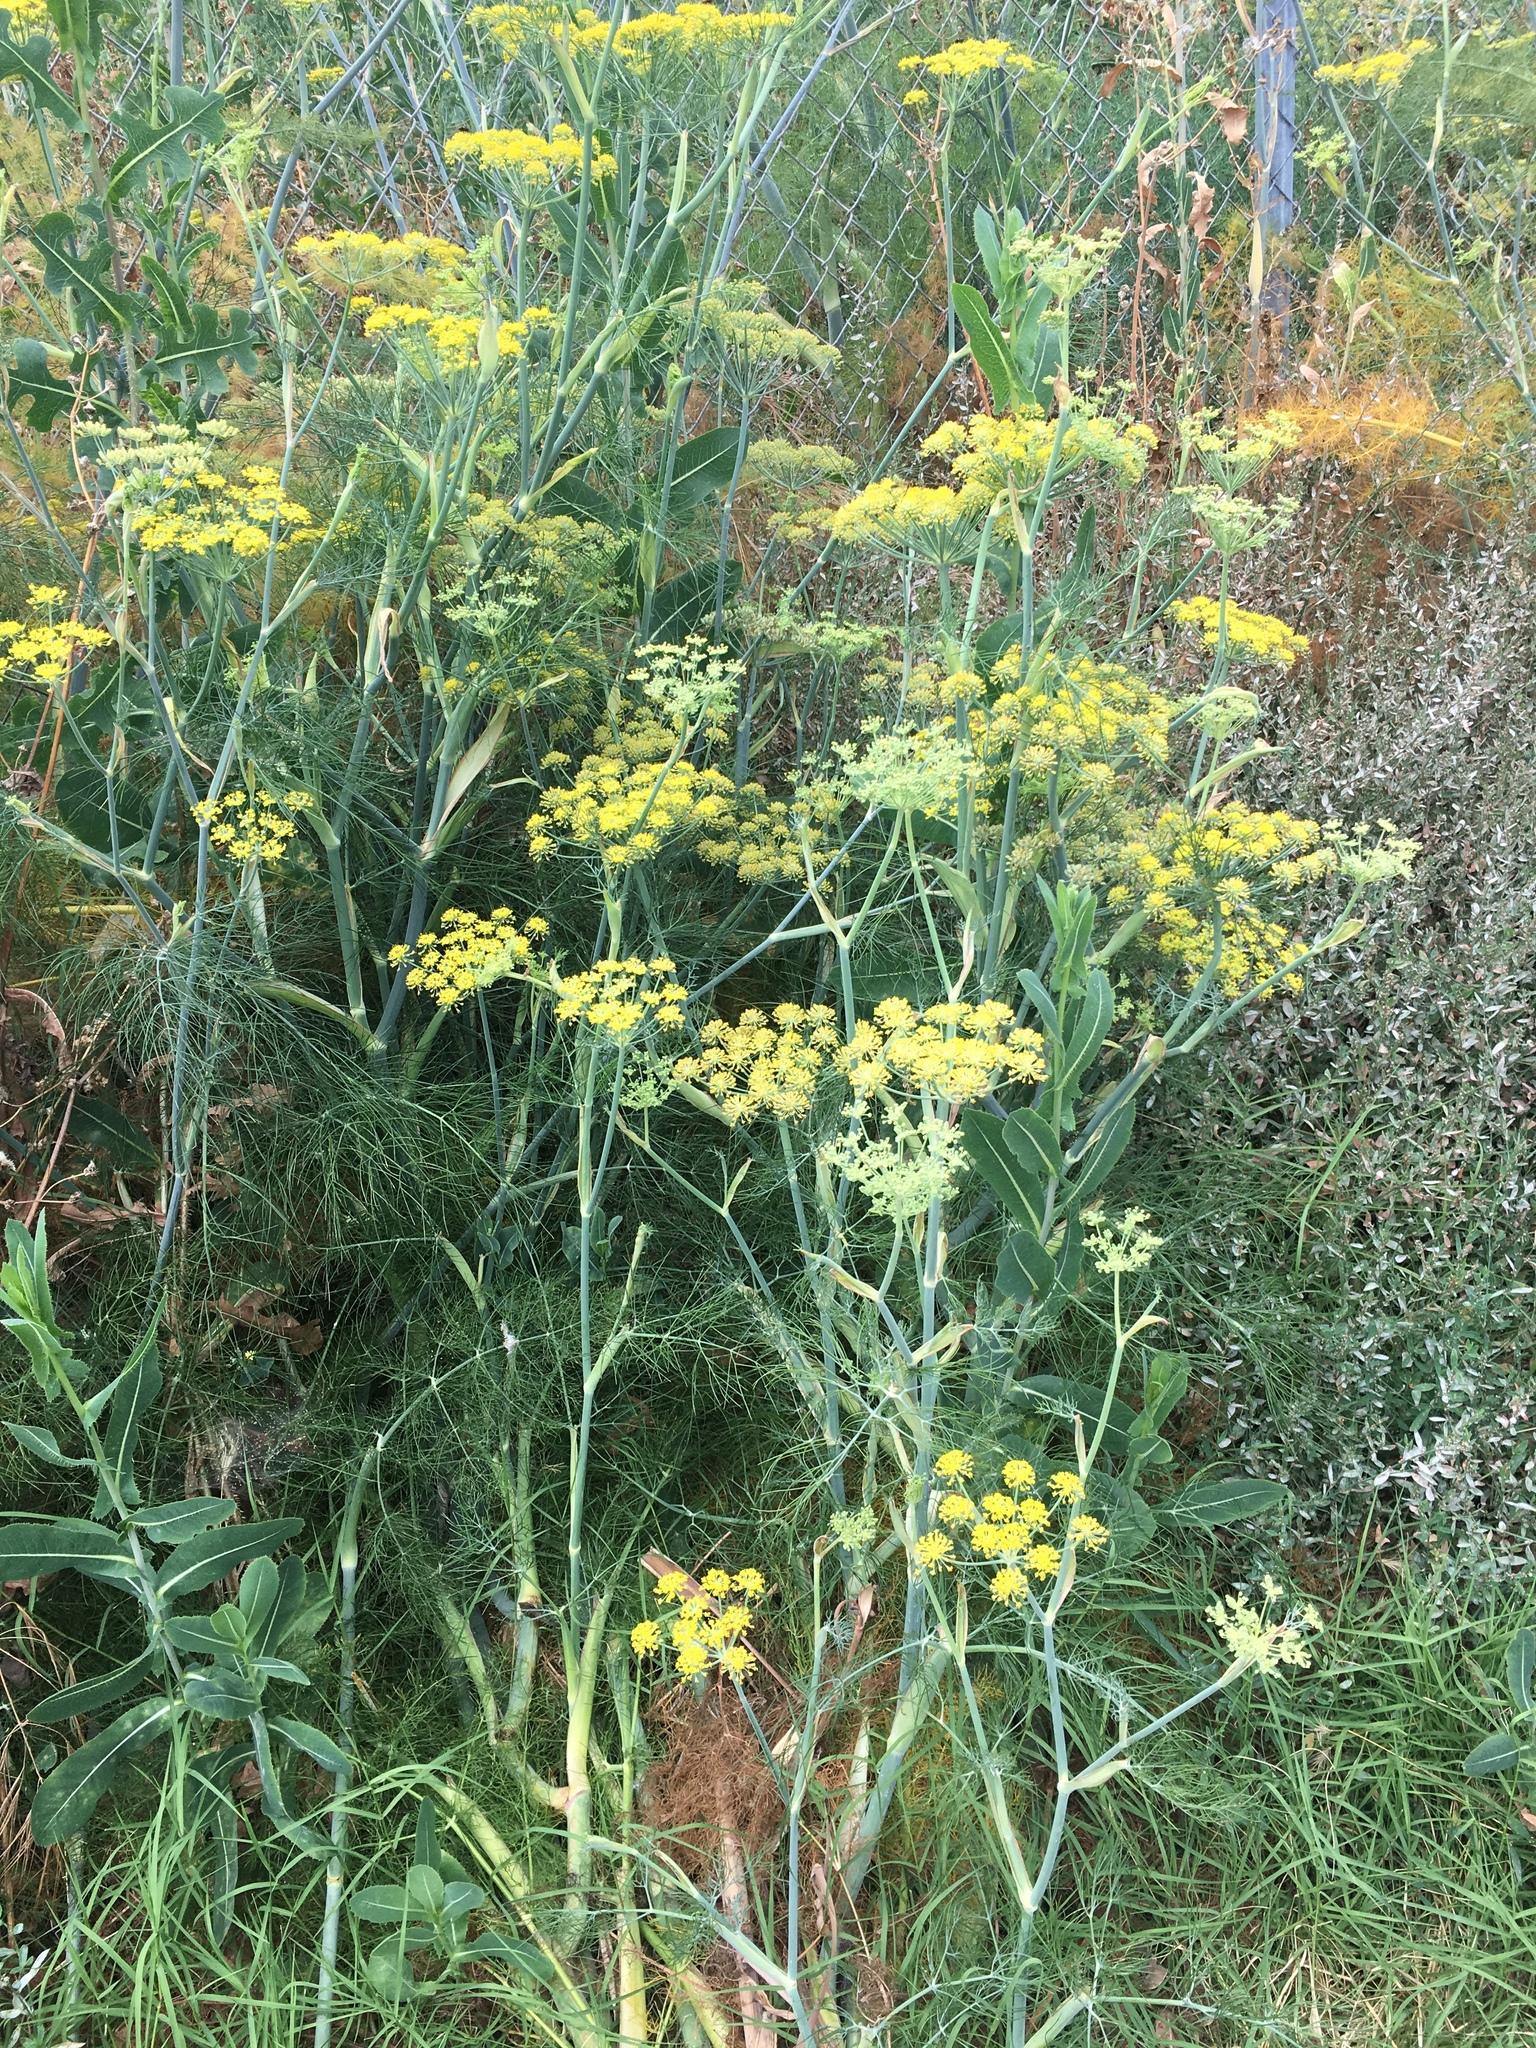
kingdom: Plantae
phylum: Tracheophyta
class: Magnoliopsida
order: Apiales
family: Apiaceae
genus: Foeniculum
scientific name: Foeniculum vulgare
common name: Fennel
